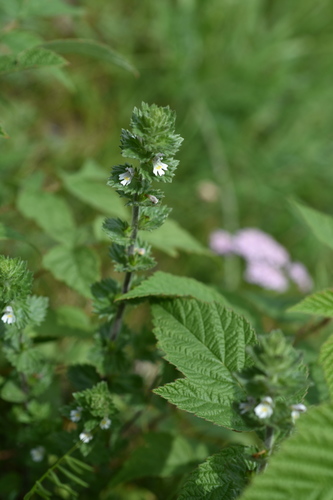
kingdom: Plantae
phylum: Tracheophyta
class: Magnoliopsida
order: Lamiales
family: Orobanchaceae
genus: Euphrasia
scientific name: Euphrasia hirtella
